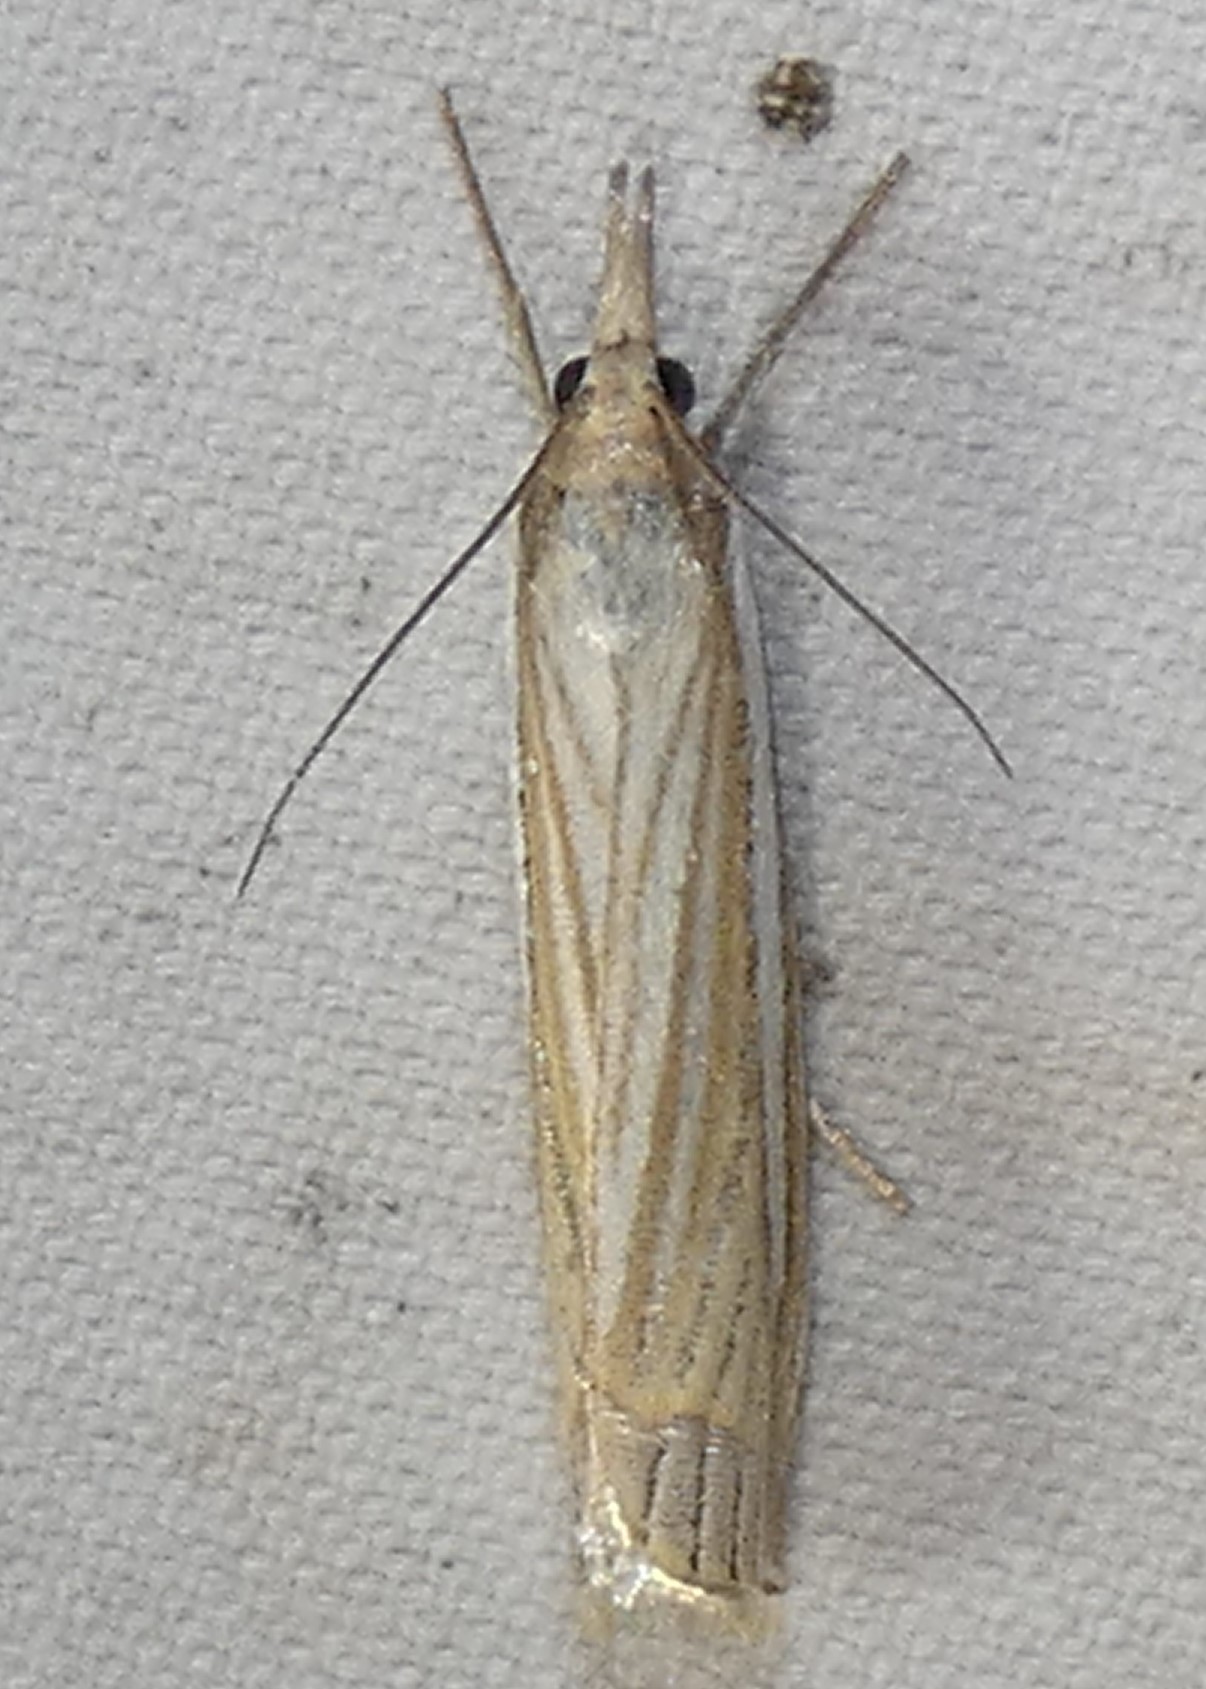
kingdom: Animalia
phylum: Arthropoda
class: Insecta
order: Lepidoptera
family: Crambidae
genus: Crambus
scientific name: Crambus laqueatellus
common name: Eastern grass-veneer
